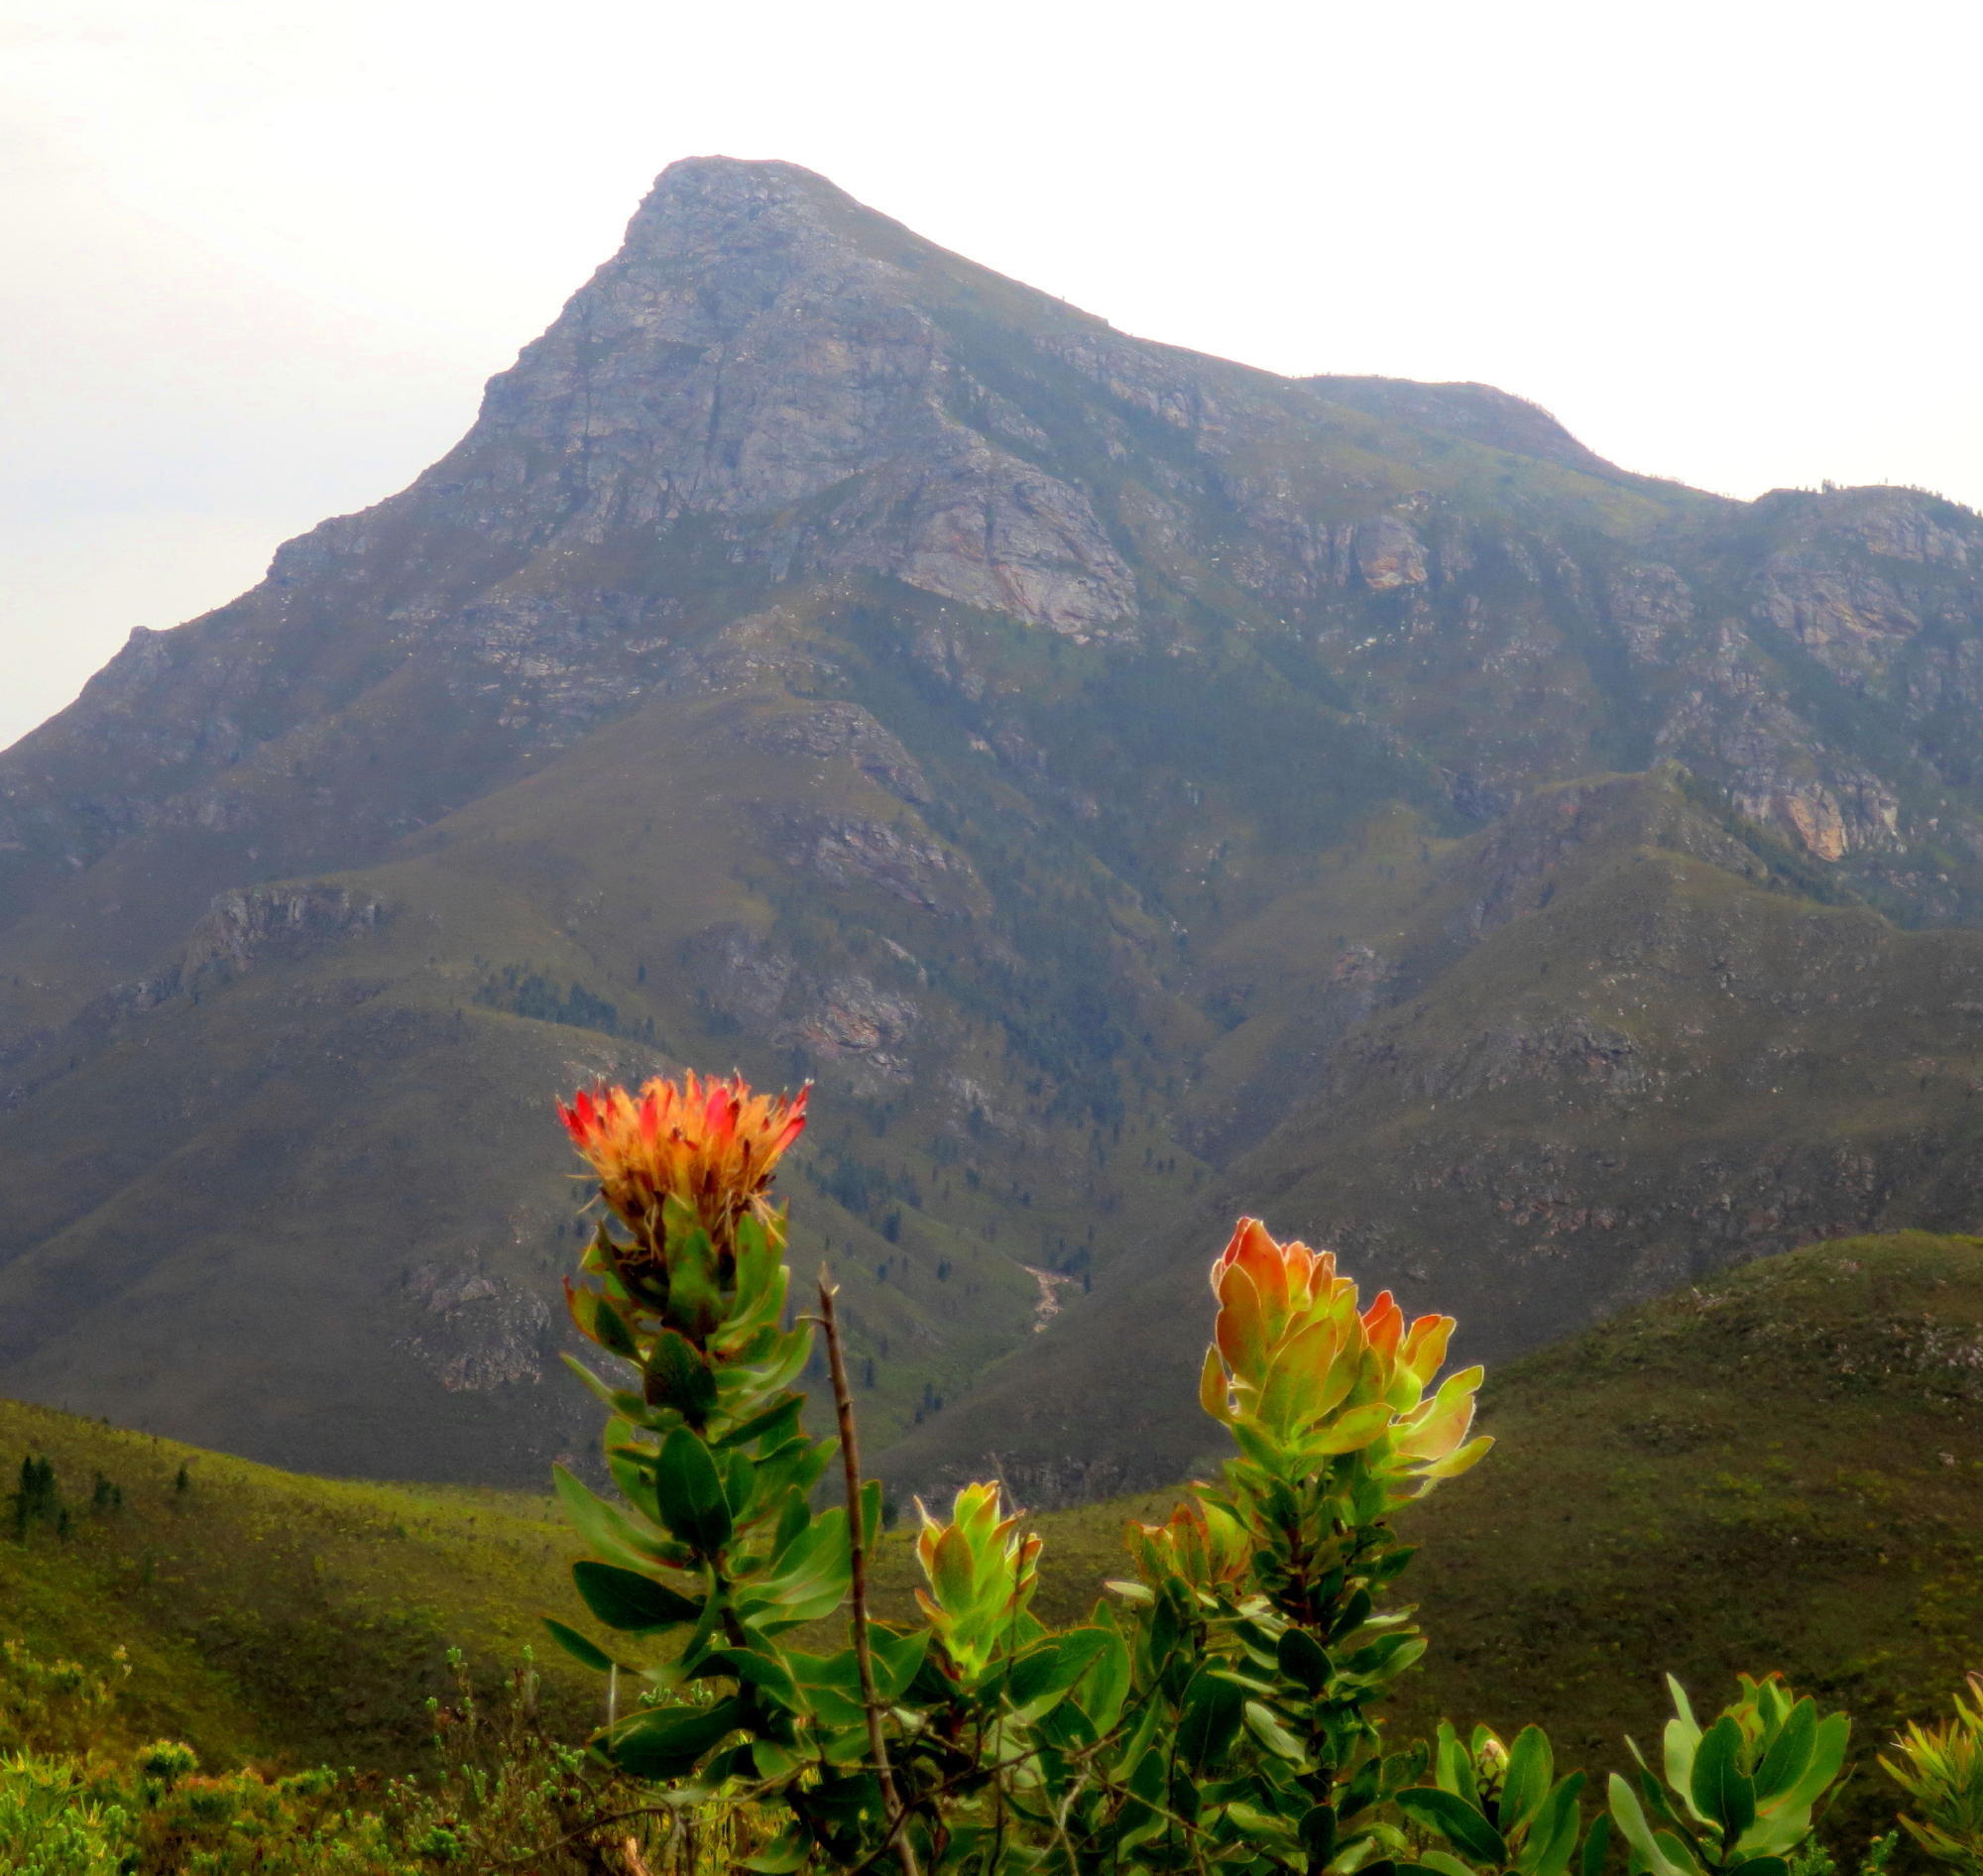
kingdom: Plantae
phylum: Tracheophyta
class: Magnoliopsida
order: Proteales
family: Proteaceae
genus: Protea
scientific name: Protea eximia
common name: Broad-leaved sugarbush
